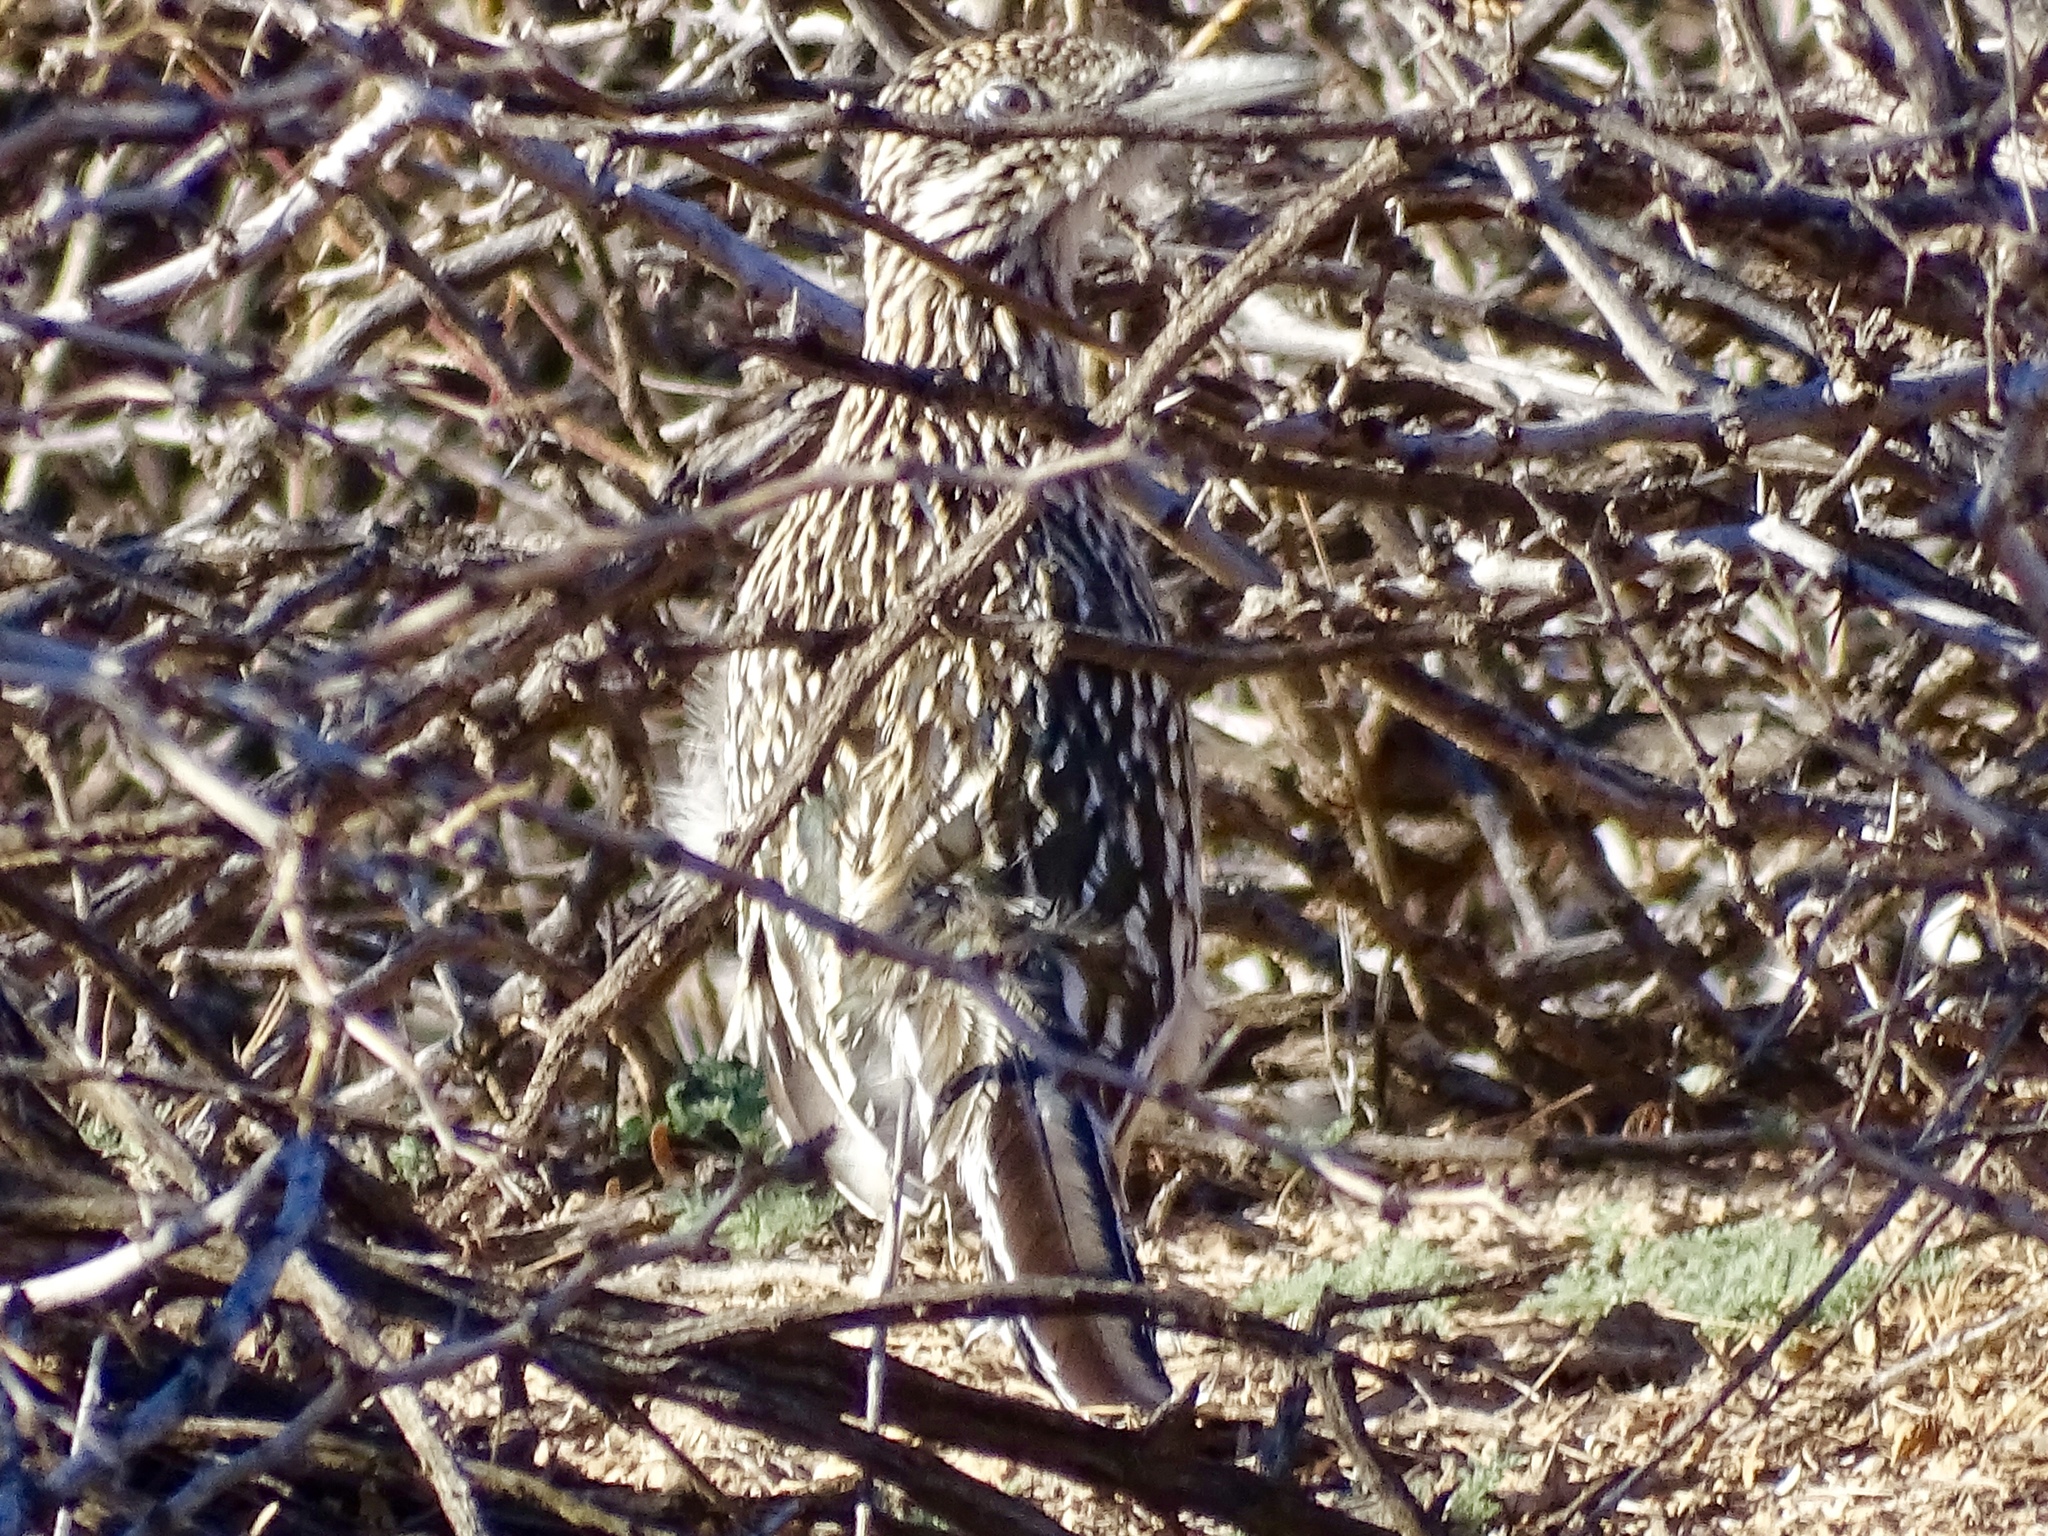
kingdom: Animalia
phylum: Chordata
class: Aves
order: Cuculiformes
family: Cuculidae
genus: Geococcyx
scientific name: Geococcyx californianus
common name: Greater roadrunner
